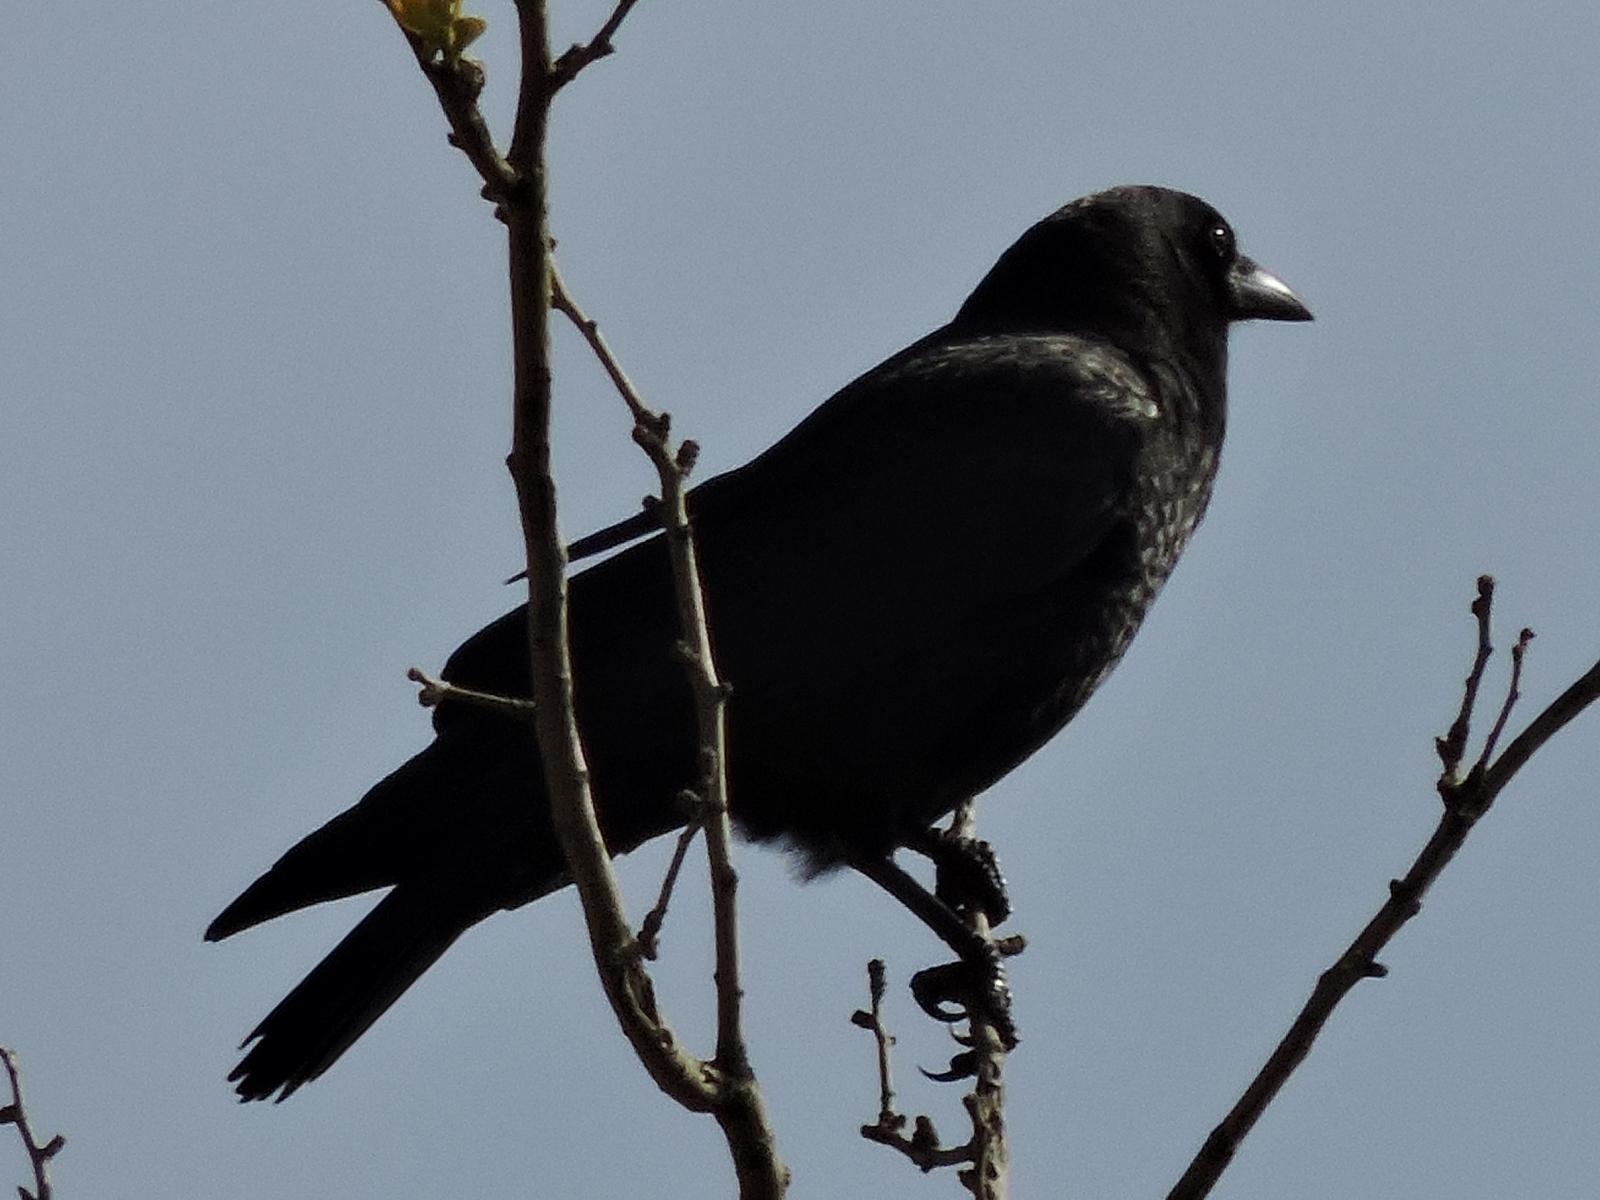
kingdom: Animalia
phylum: Chordata
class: Aves
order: Passeriformes
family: Corvidae
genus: Corvus
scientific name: Corvus brachyrhynchos
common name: American crow
